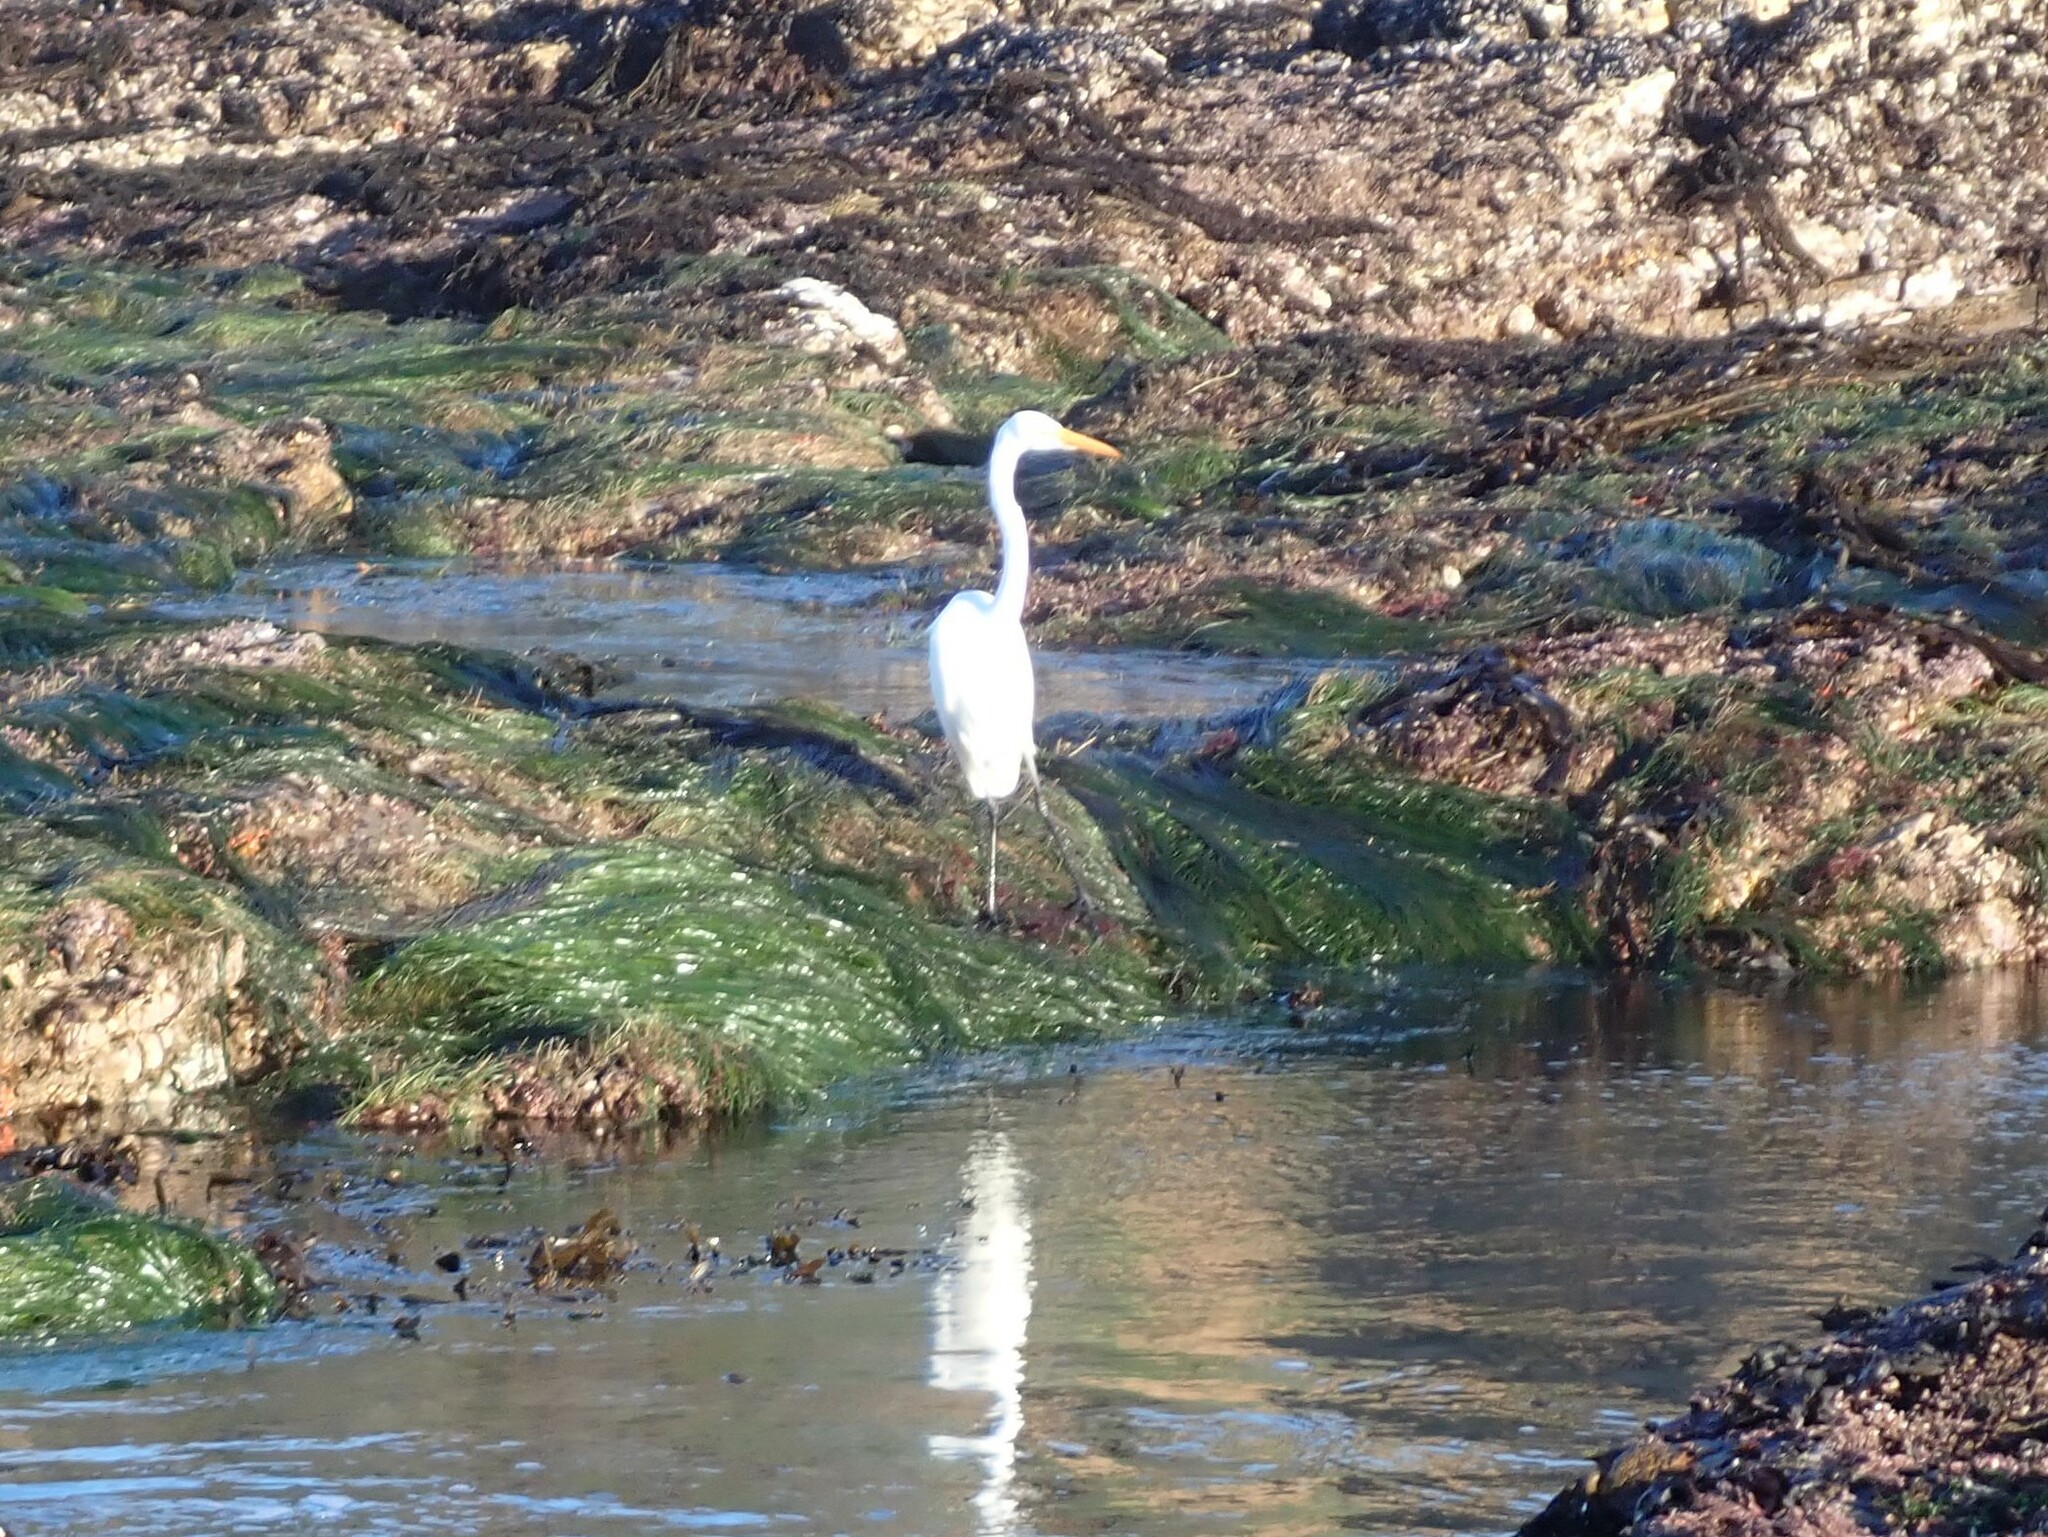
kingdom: Animalia
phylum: Chordata
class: Aves
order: Pelecaniformes
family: Ardeidae
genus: Ardea
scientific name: Ardea alba
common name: Great egret
